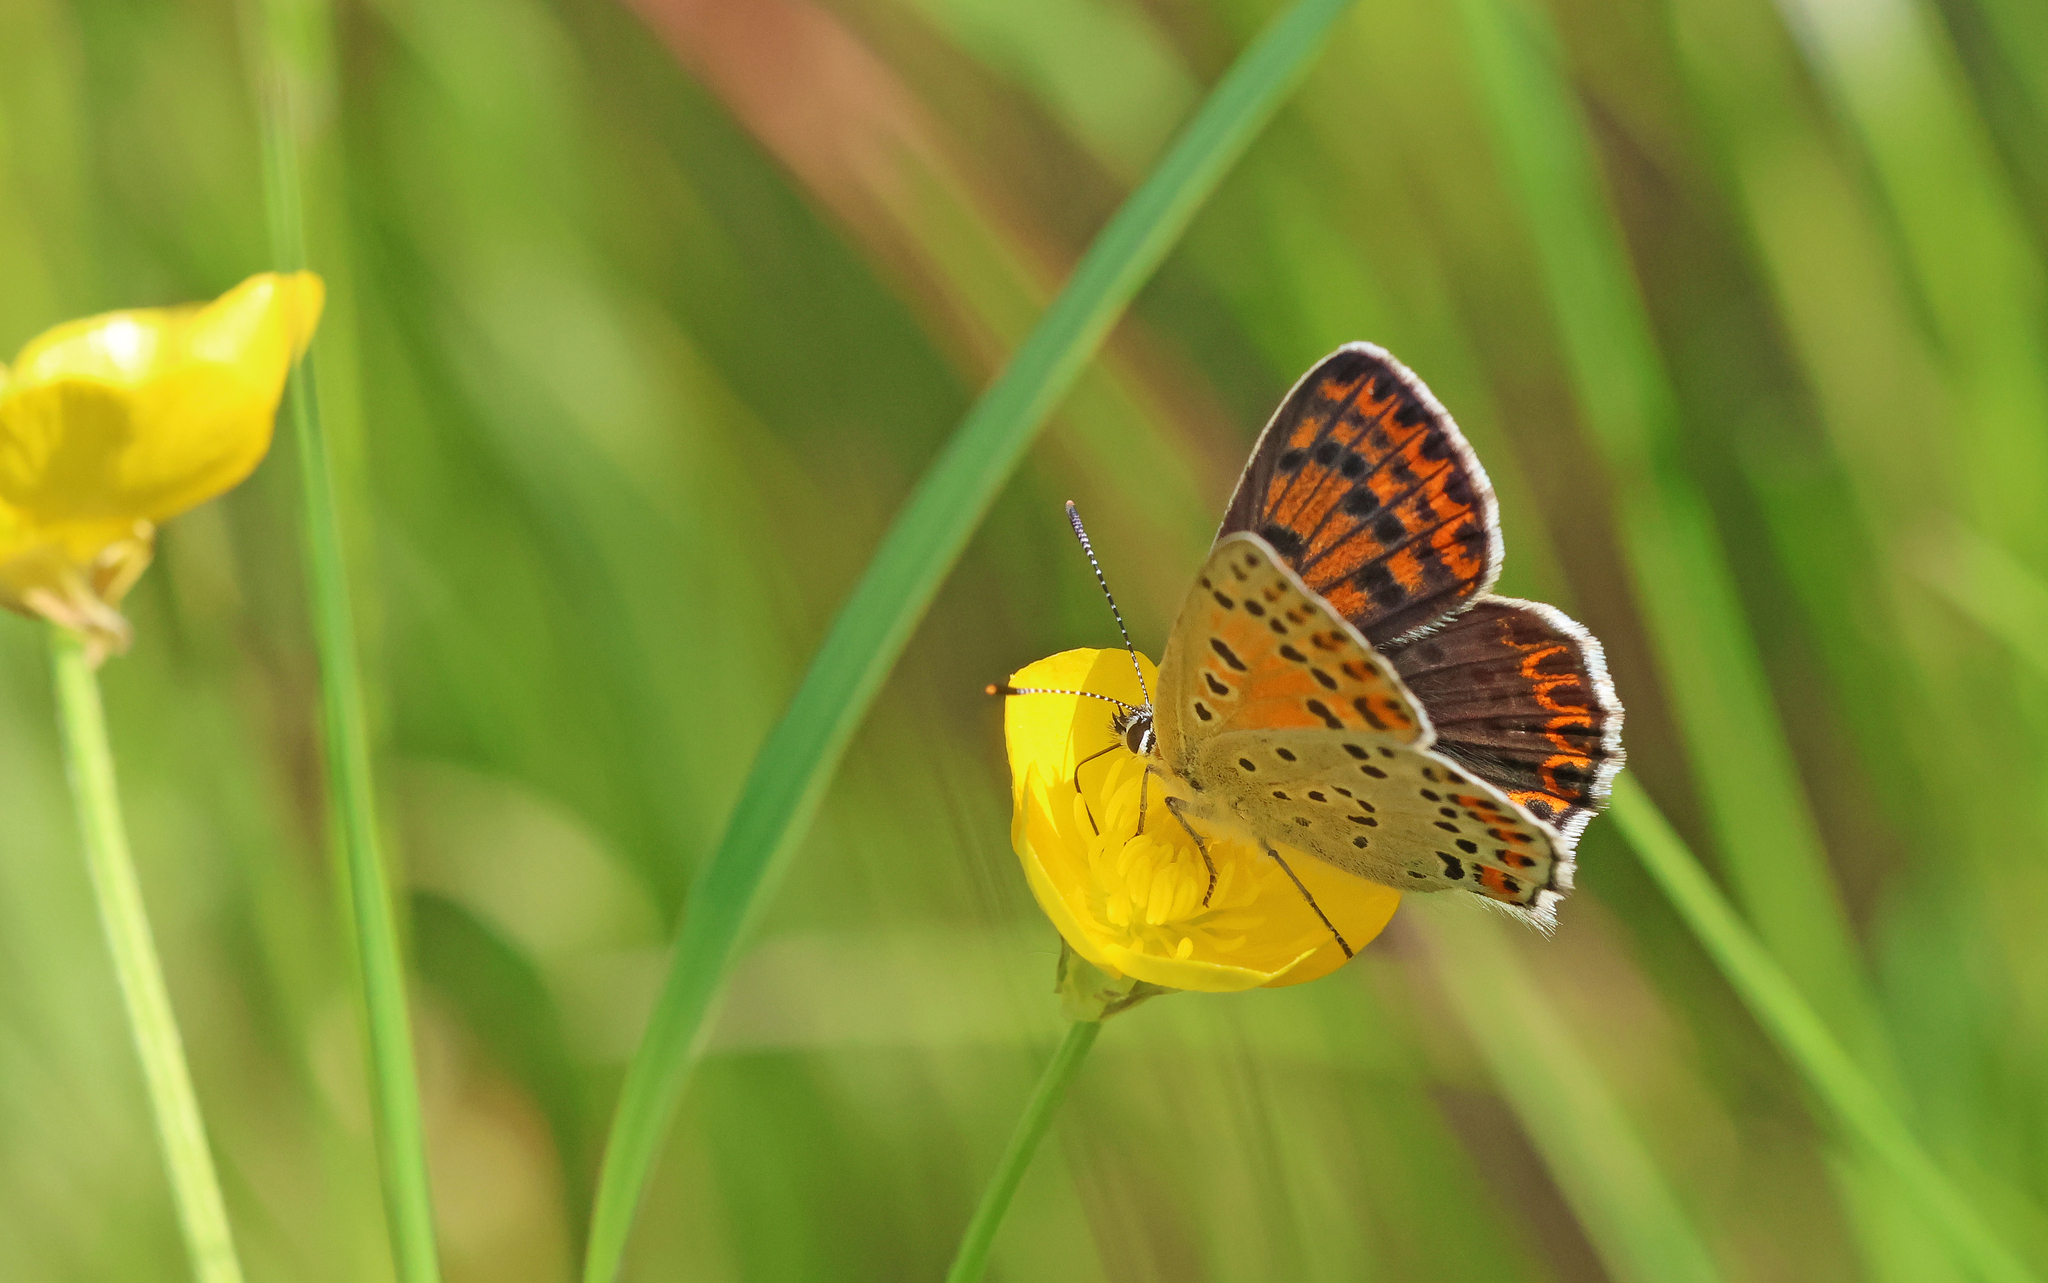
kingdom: Animalia
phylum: Arthropoda
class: Insecta
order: Lepidoptera
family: Lycaenidae
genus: Loweia
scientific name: Loweia tityrus
